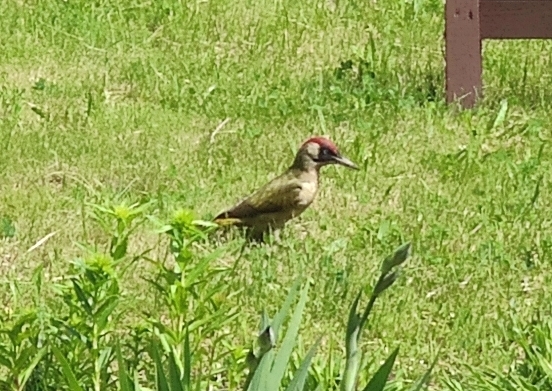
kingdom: Animalia
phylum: Chordata
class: Aves
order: Piciformes
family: Picidae
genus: Picus
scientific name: Picus viridis
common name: European green woodpecker
